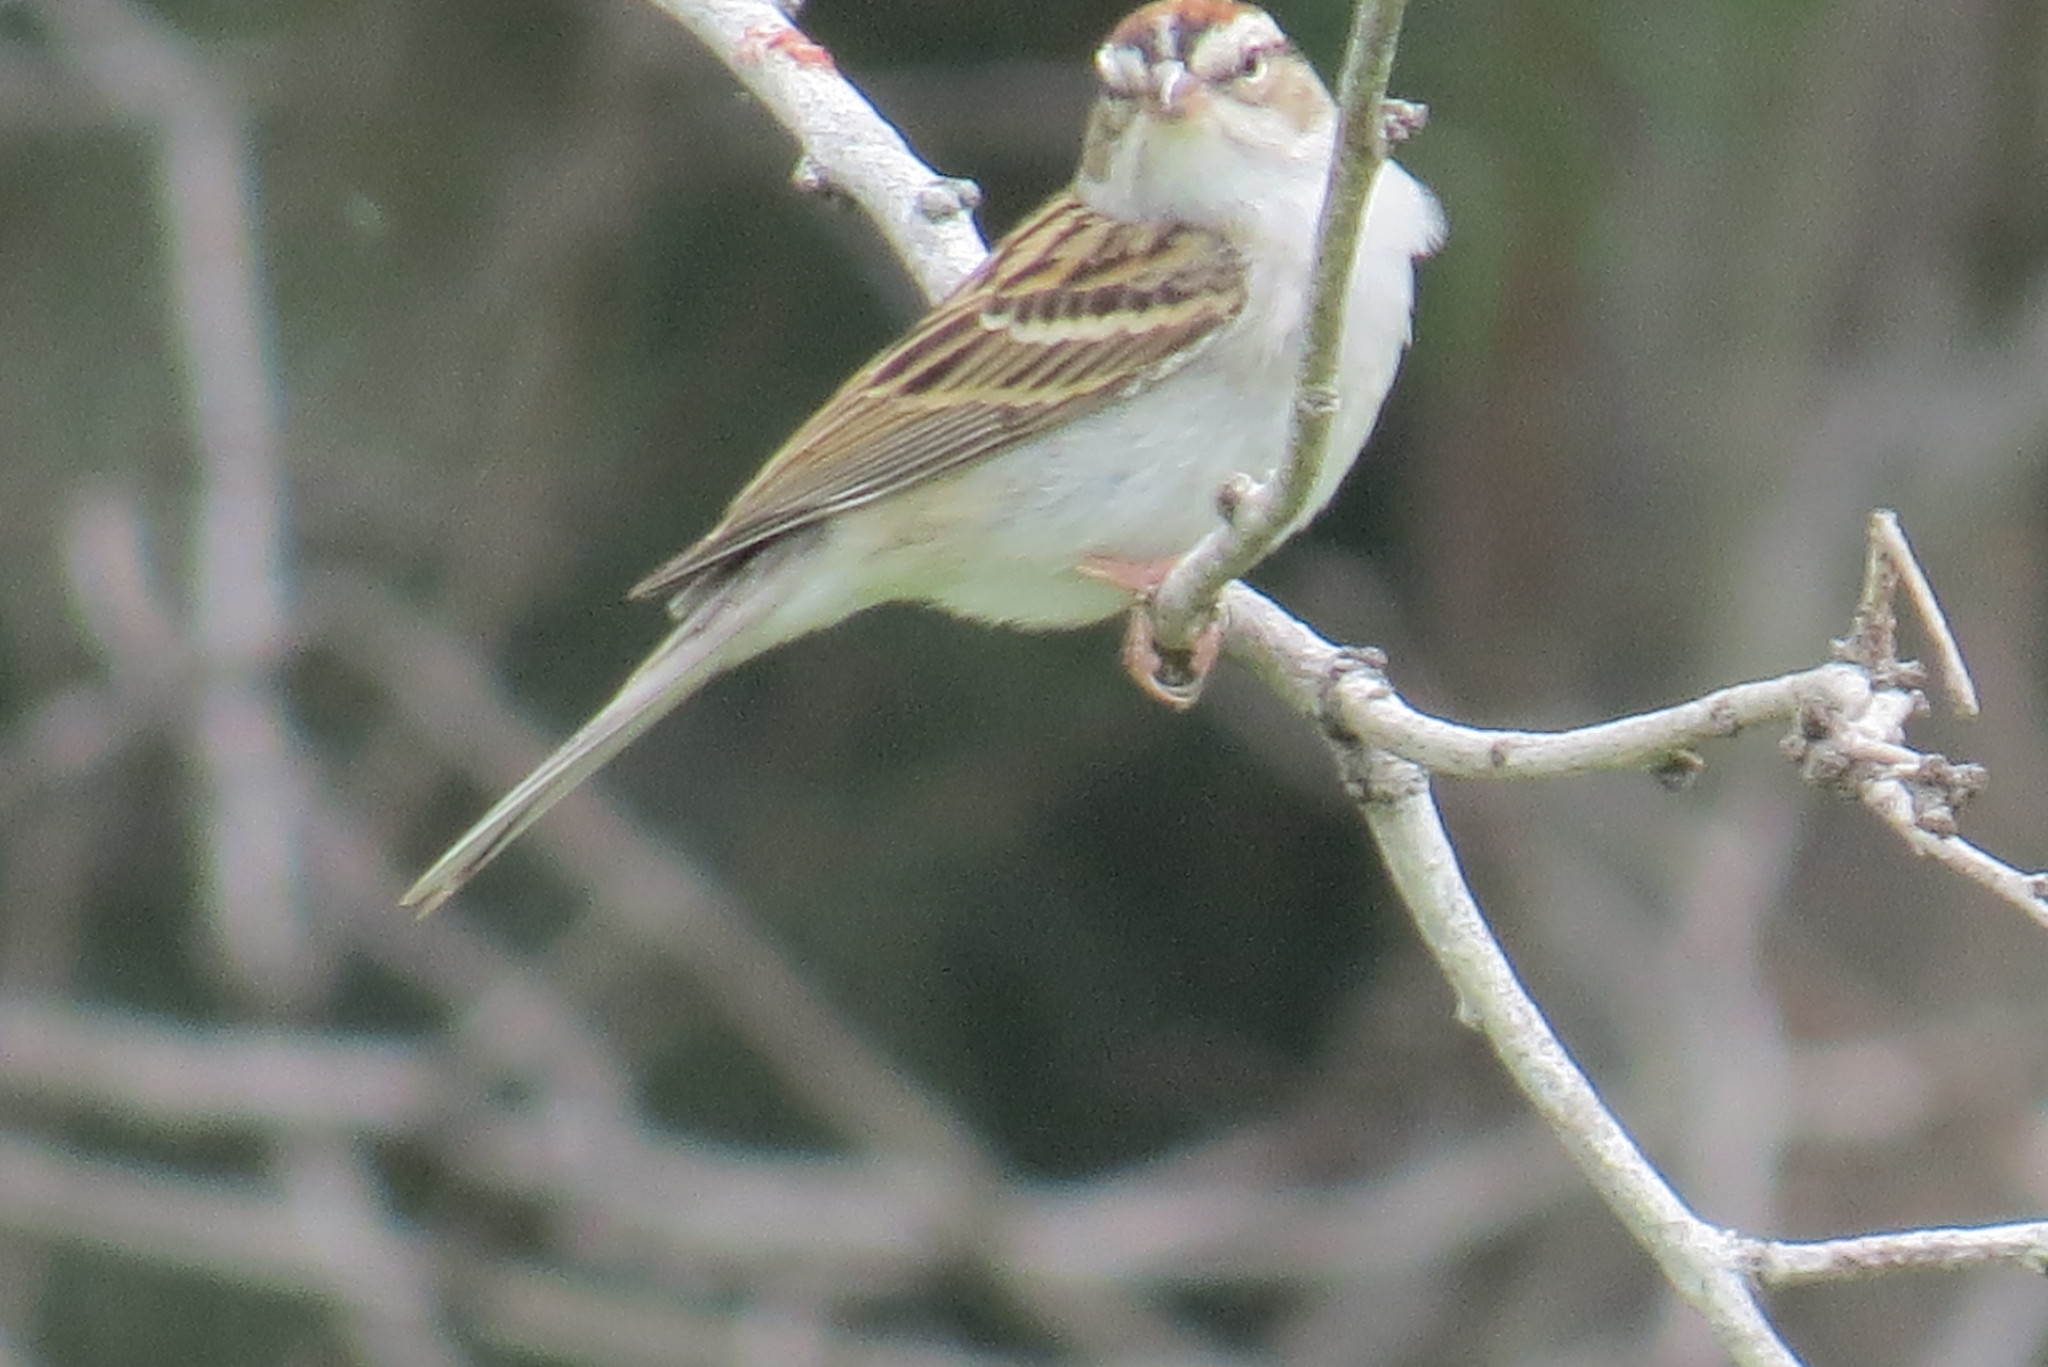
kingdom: Animalia
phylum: Chordata
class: Aves
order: Passeriformes
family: Passerellidae
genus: Spizella
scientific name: Spizella passerina
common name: Chipping sparrow
